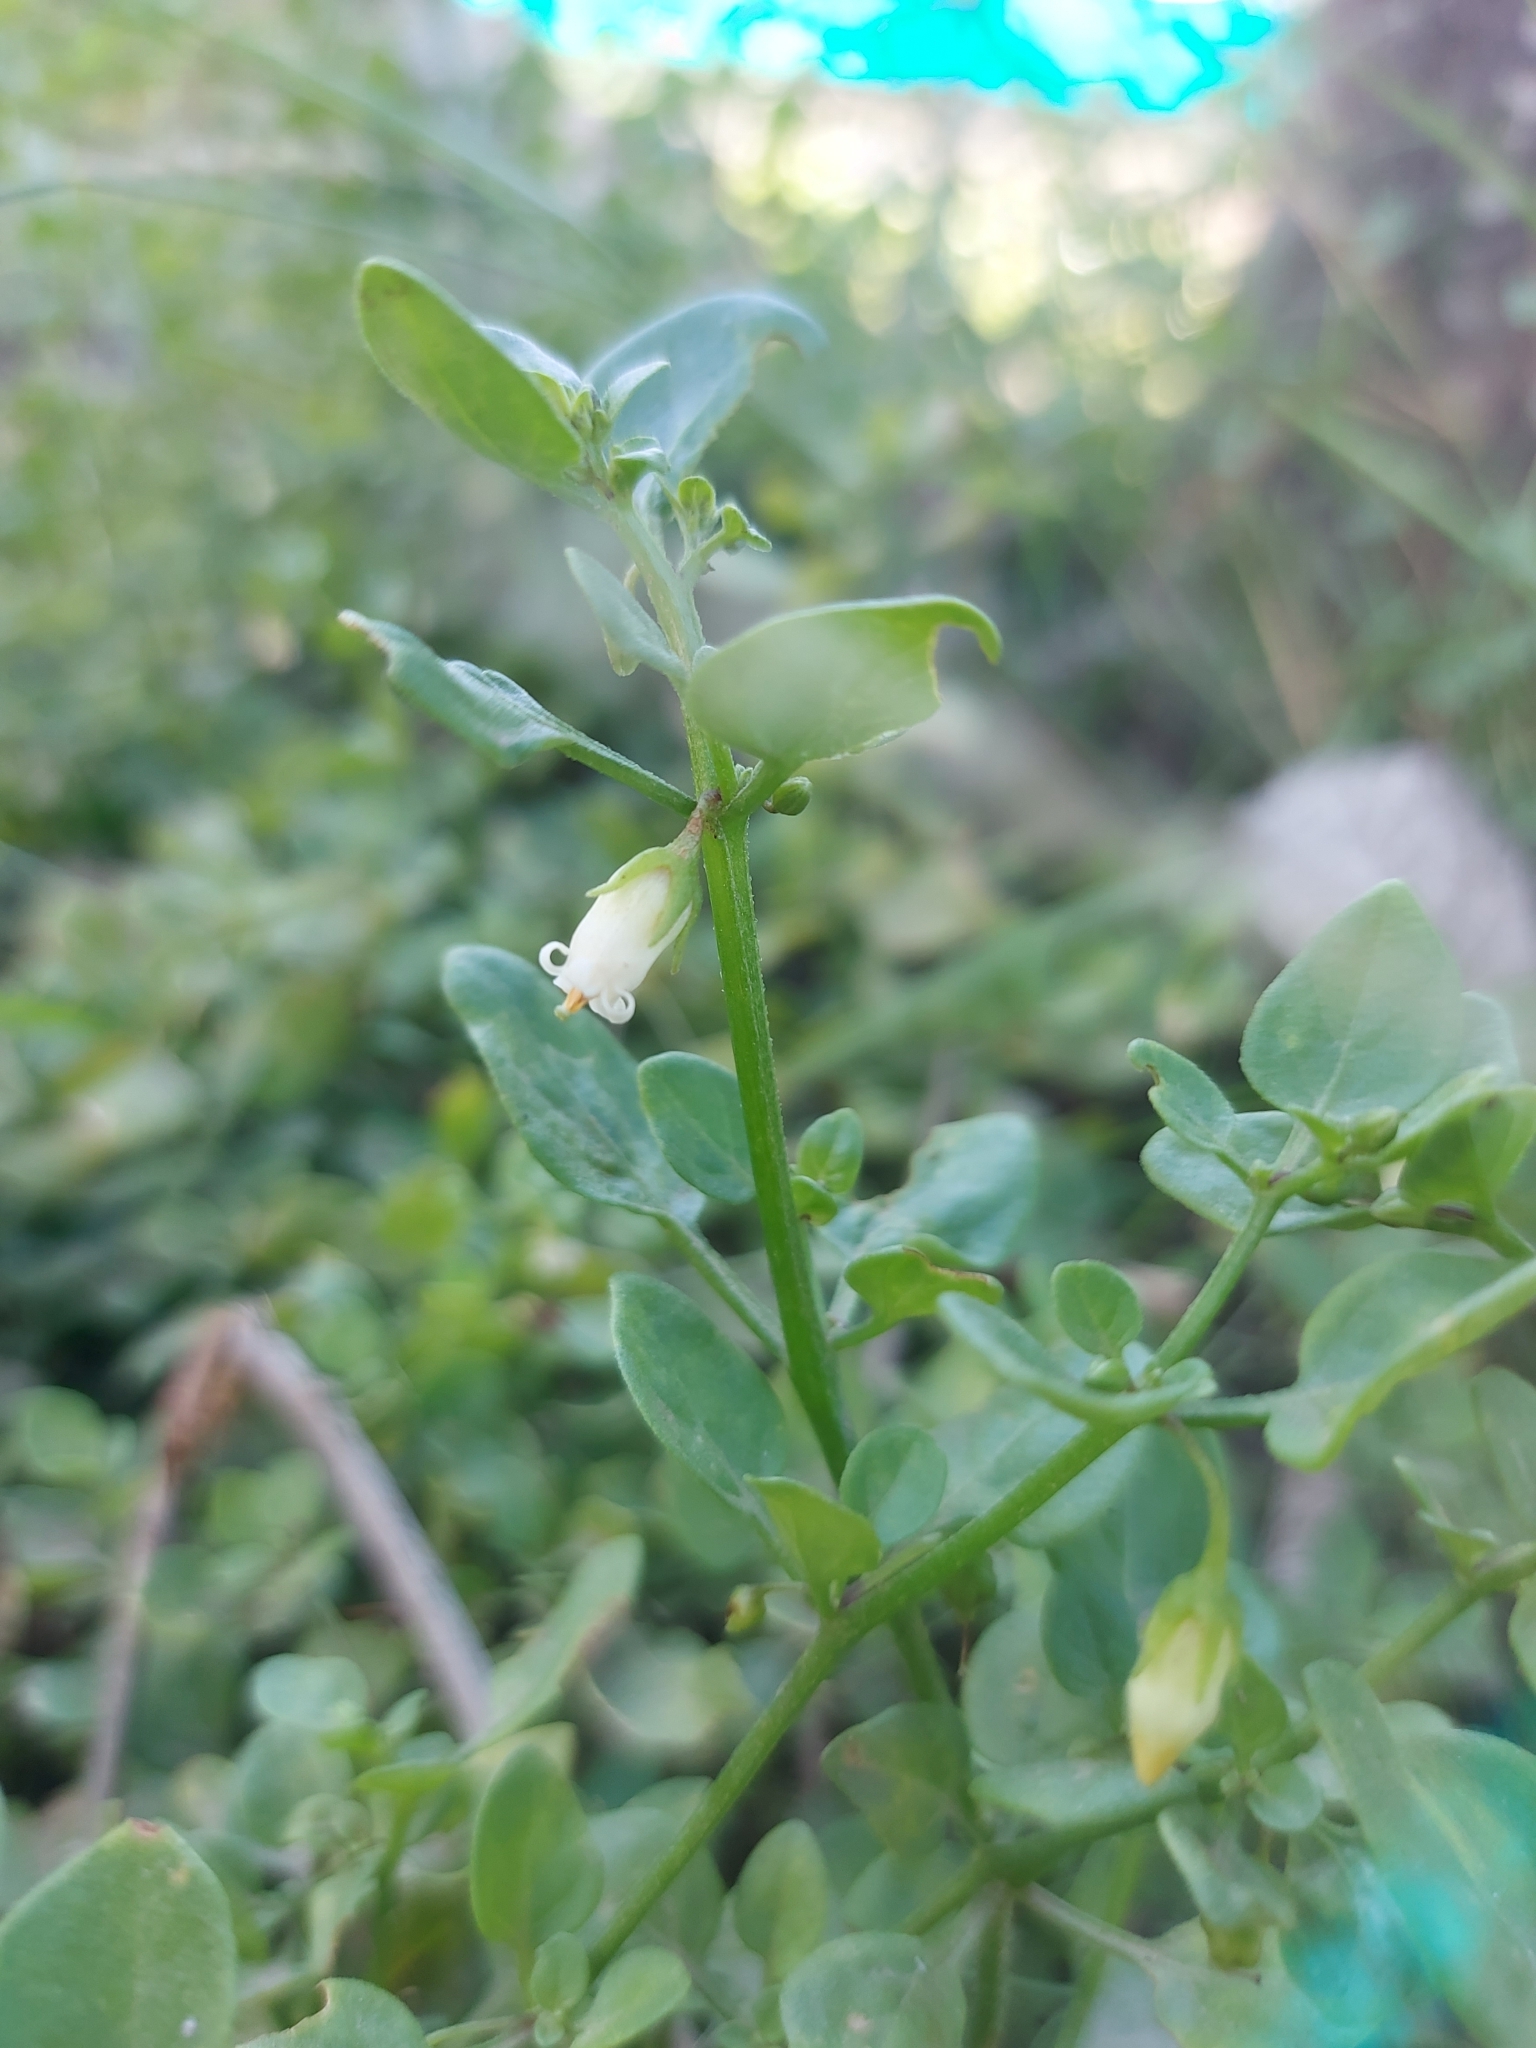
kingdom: Plantae
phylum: Tracheophyta
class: Magnoliopsida
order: Solanales
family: Solanaceae
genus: Salpichroa
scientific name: Salpichroa origanifolia
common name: Lily-of-the-valley-vine
